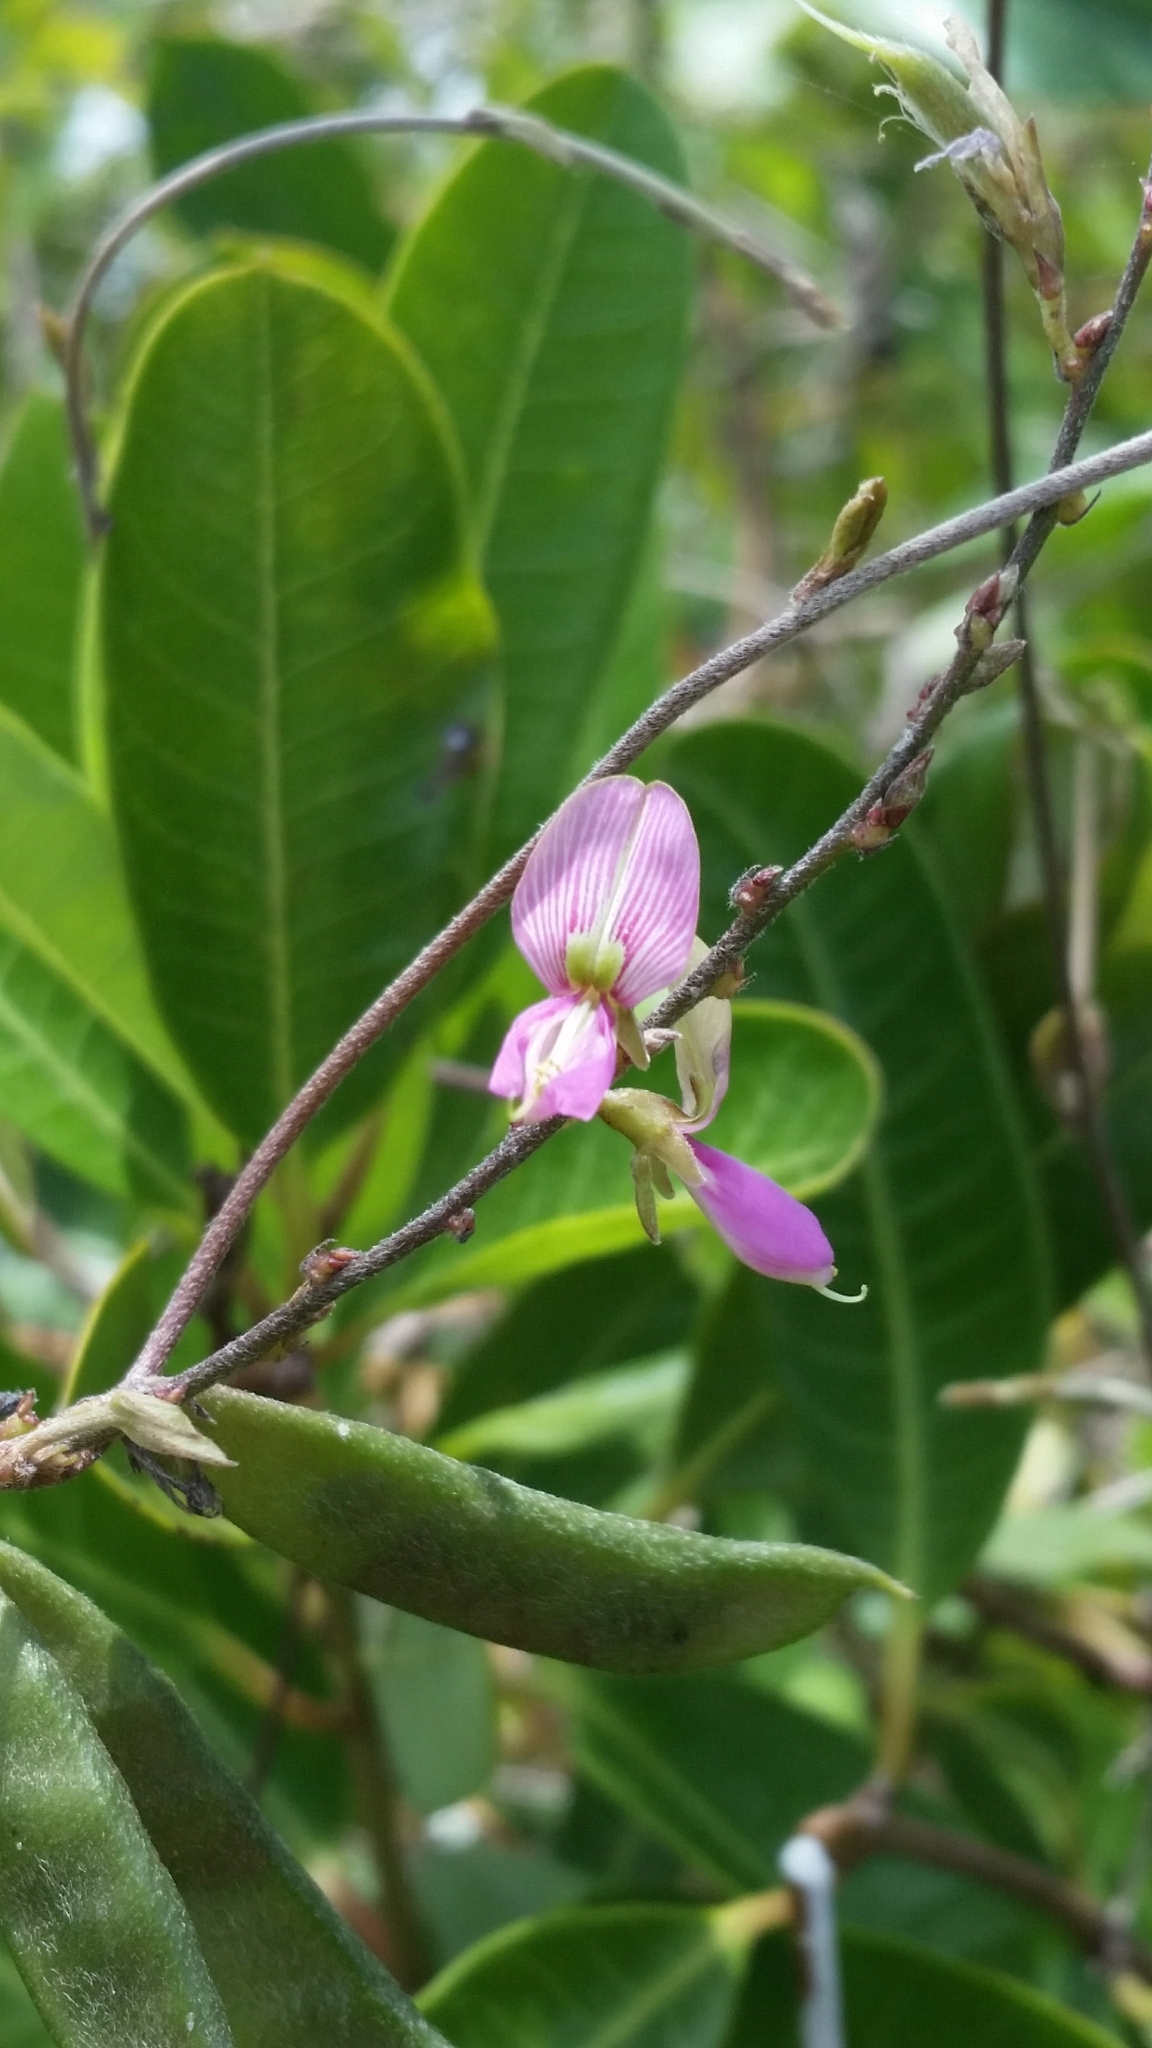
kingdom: Plantae
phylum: Tracheophyta
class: Magnoliopsida
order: Fabales
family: Fabaceae
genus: Galactia
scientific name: Galactia striata
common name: Florida hammock milkpea
